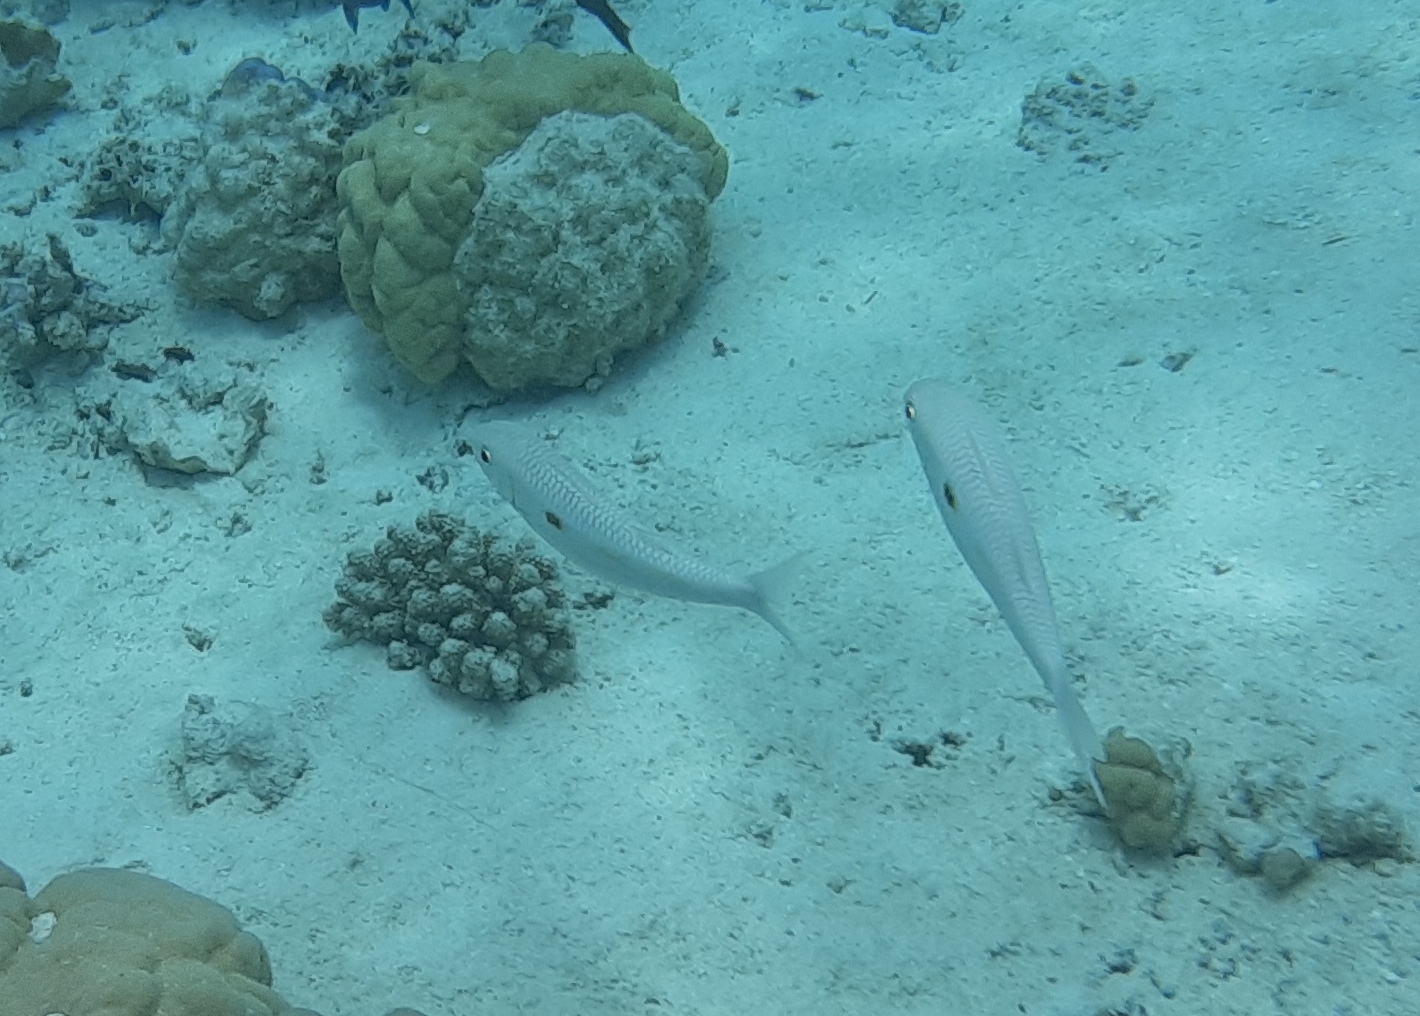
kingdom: Animalia
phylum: Chordata
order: Perciformes
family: Mullidae
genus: Mulloidichthys
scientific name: Mulloidichthys flavolineatus
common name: Yellowstripe goatfish
